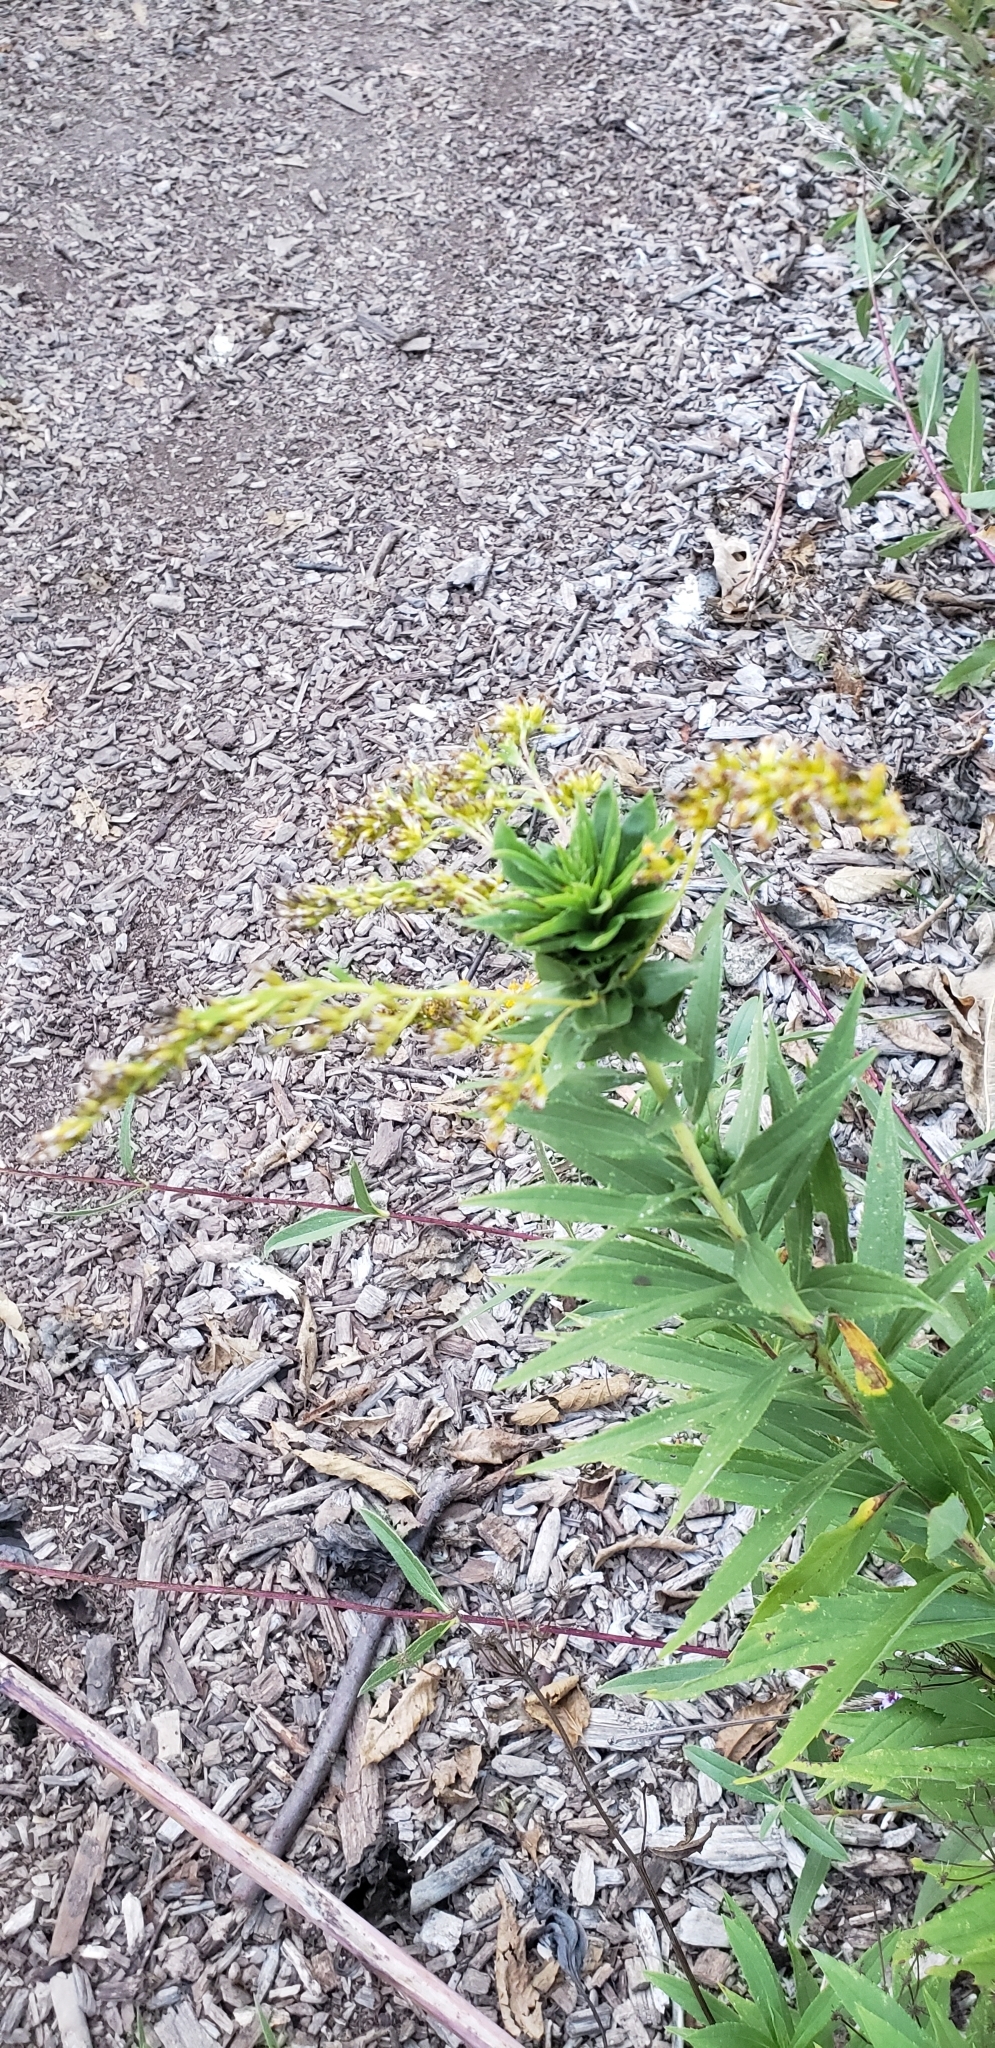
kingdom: Animalia
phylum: Arthropoda
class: Insecta
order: Diptera
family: Cecidomyiidae
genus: Rhopalomyia
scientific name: Rhopalomyia solidaginis
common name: Goldenrod bunch gall midge
